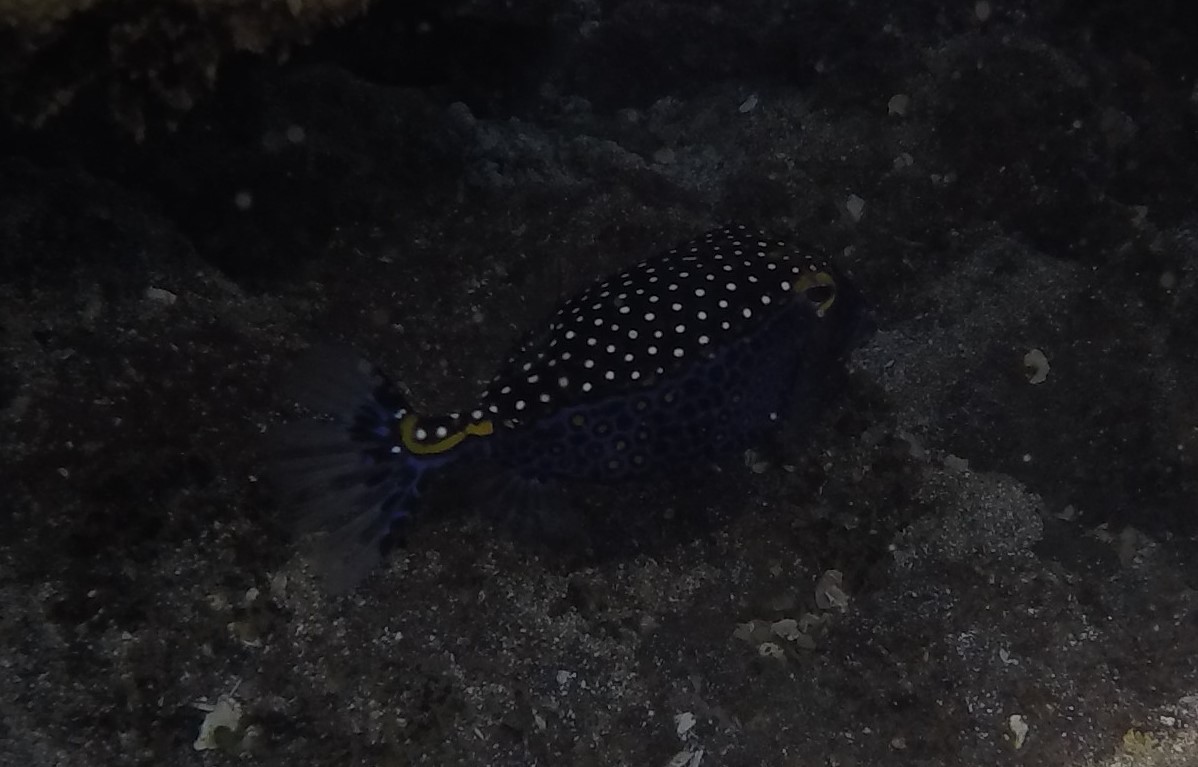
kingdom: Animalia
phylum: Chordata
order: Tetraodontiformes
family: Ostraciidae
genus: Ostracion
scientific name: Ostracion meleagris
